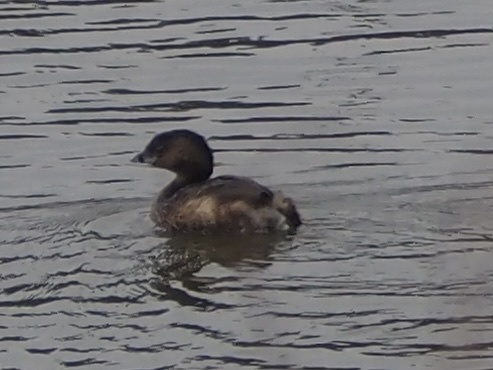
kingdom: Animalia
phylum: Chordata
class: Aves
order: Podicipediformes
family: Podicipedidae
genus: Podilymbus
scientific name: Podilymbus podiceps
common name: Pied-billed grebe
